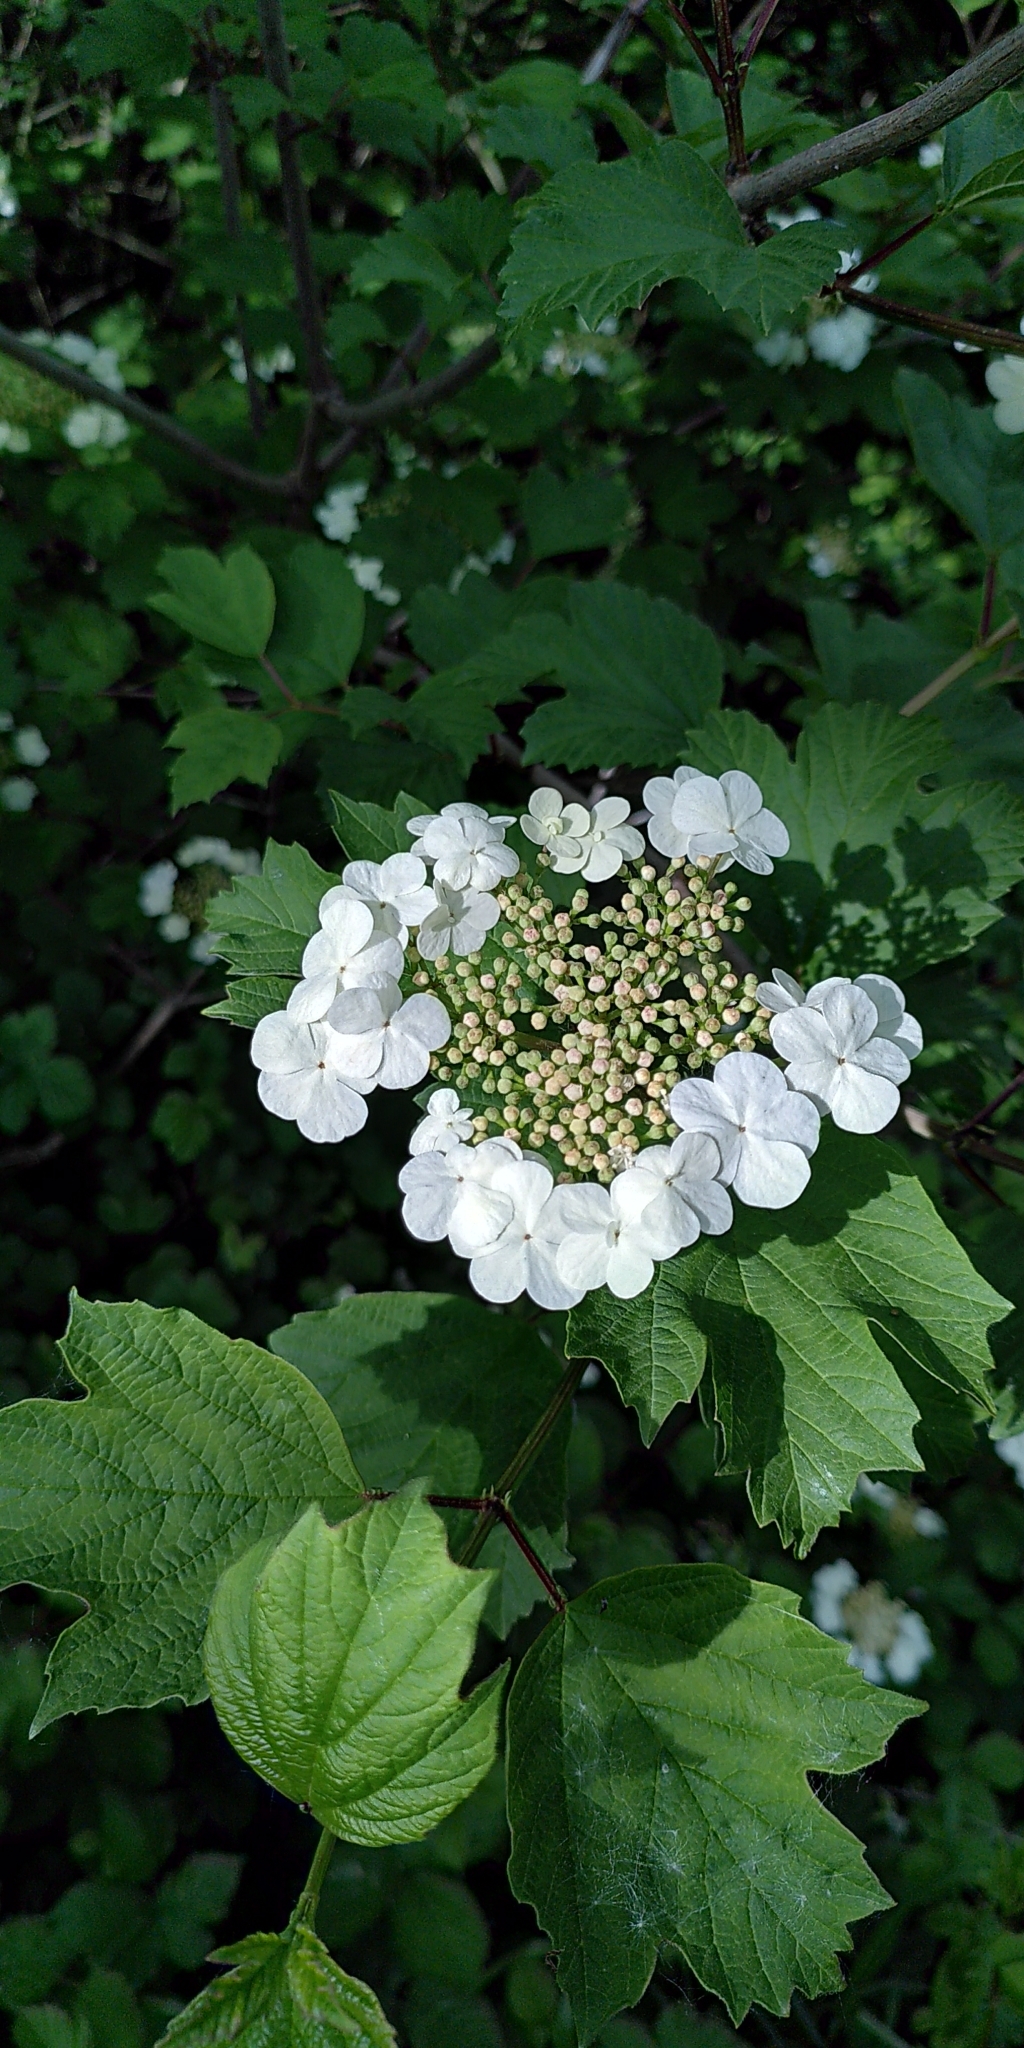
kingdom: Plantae
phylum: Tracheophyta
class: Magnoliopsida
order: Dipsacales
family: Viburnaceae
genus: Viburnum
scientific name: Viburnum opulus
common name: Guelder-rose
